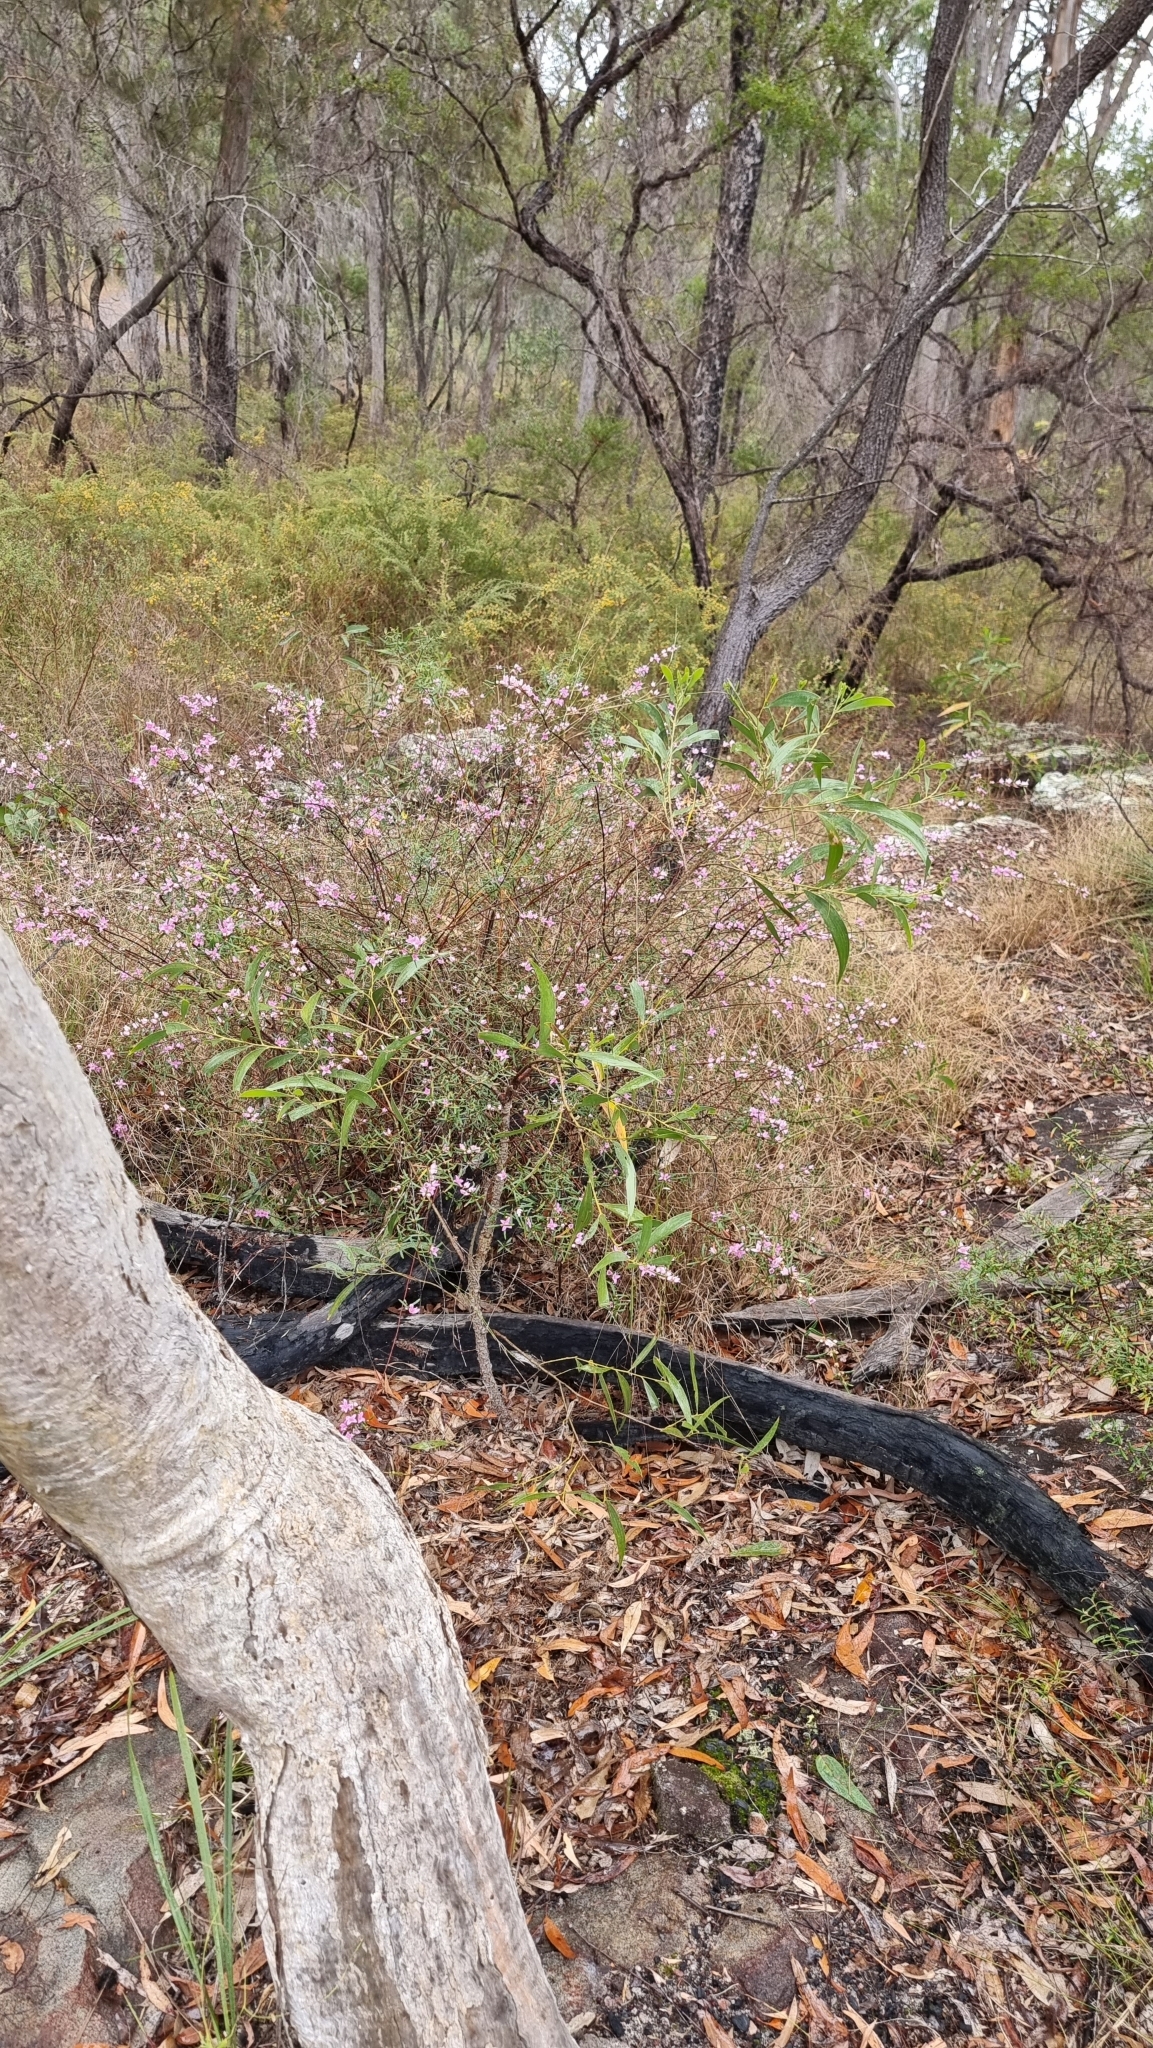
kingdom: Plantae
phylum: Tracheophyta
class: Magnoliopsida
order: Sapindales
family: Rutaceae
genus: Boronia
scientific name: Boronia rosmarinifolia
